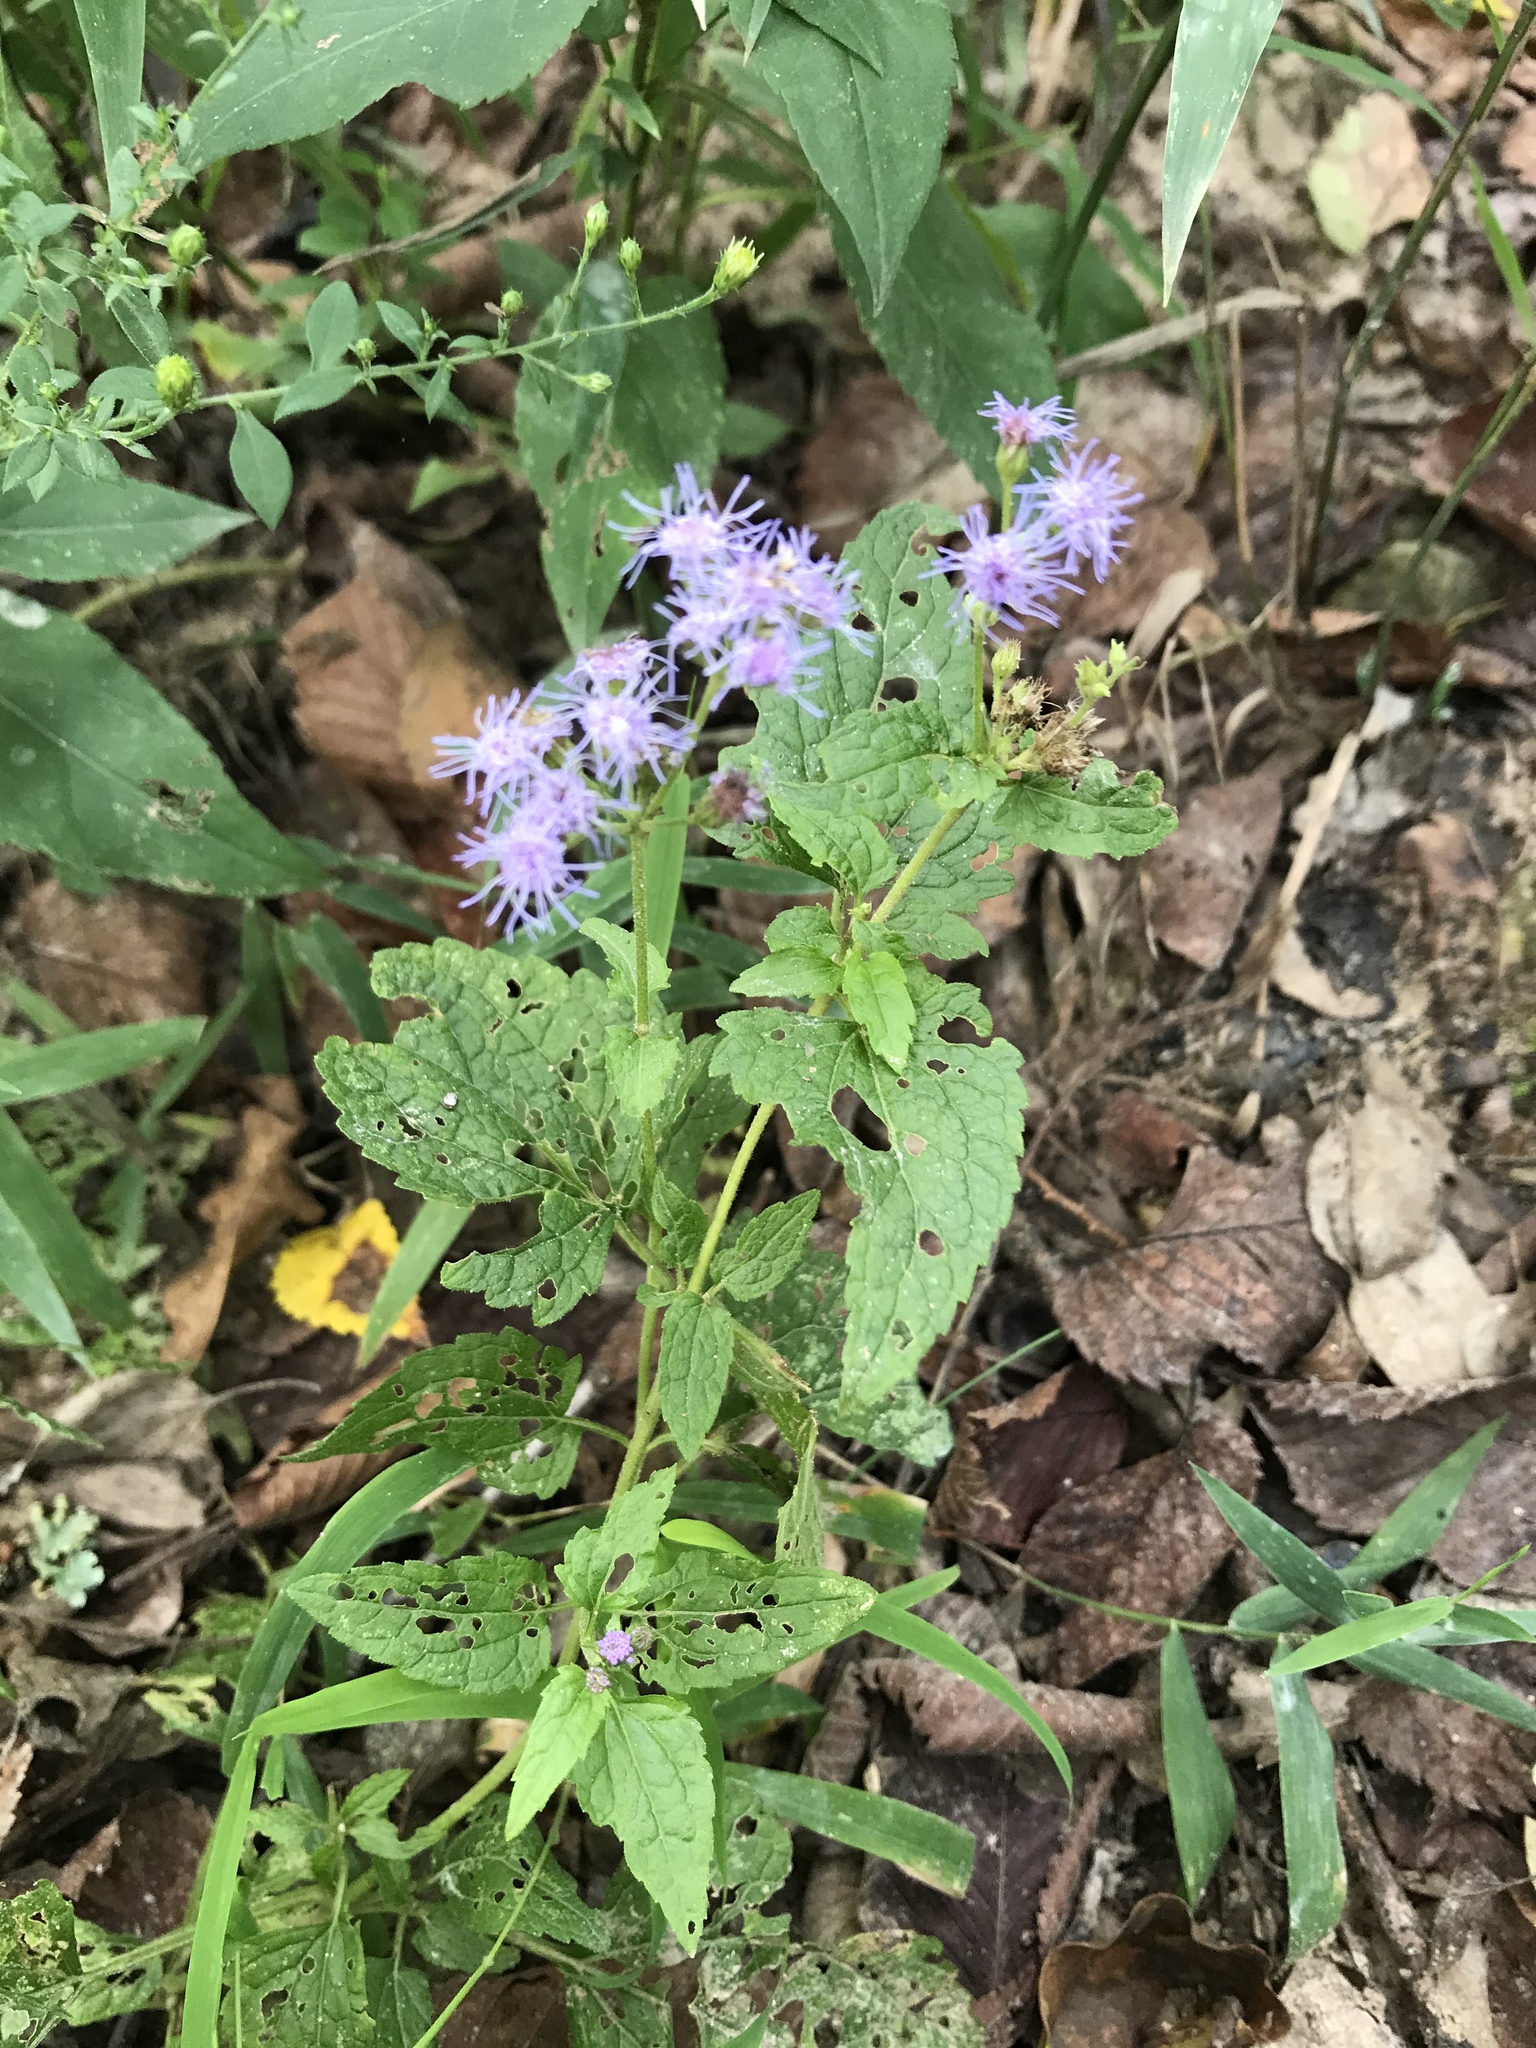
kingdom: Plantae
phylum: Tracheophyta
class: Magnoliopsida
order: Asterales
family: Asteraceae
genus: Conoclinium
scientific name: Conoclinium coelestinum
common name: Blue mistflower
